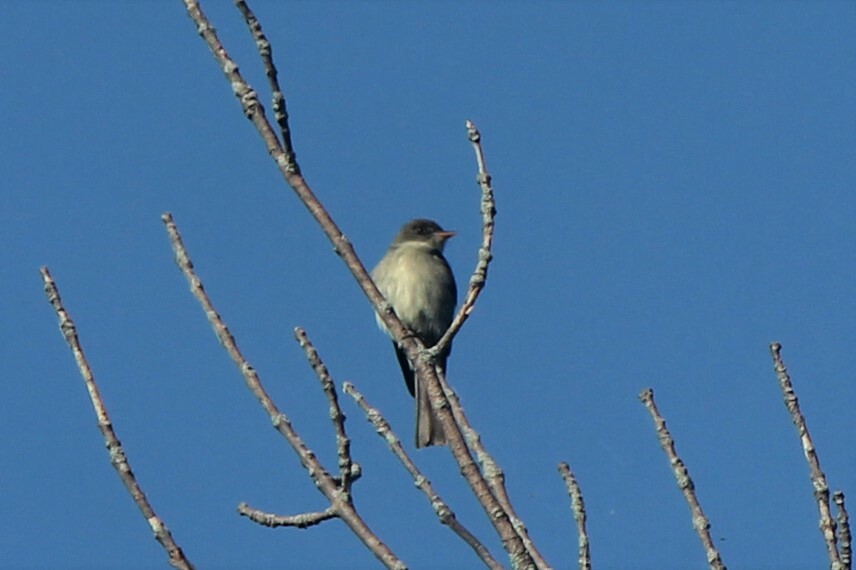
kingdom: Animalia
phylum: Chordata
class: Aves
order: Passeriformes
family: Tyrannidae
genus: Contopus
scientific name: Contopus virens
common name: Eastern wood-pewee
